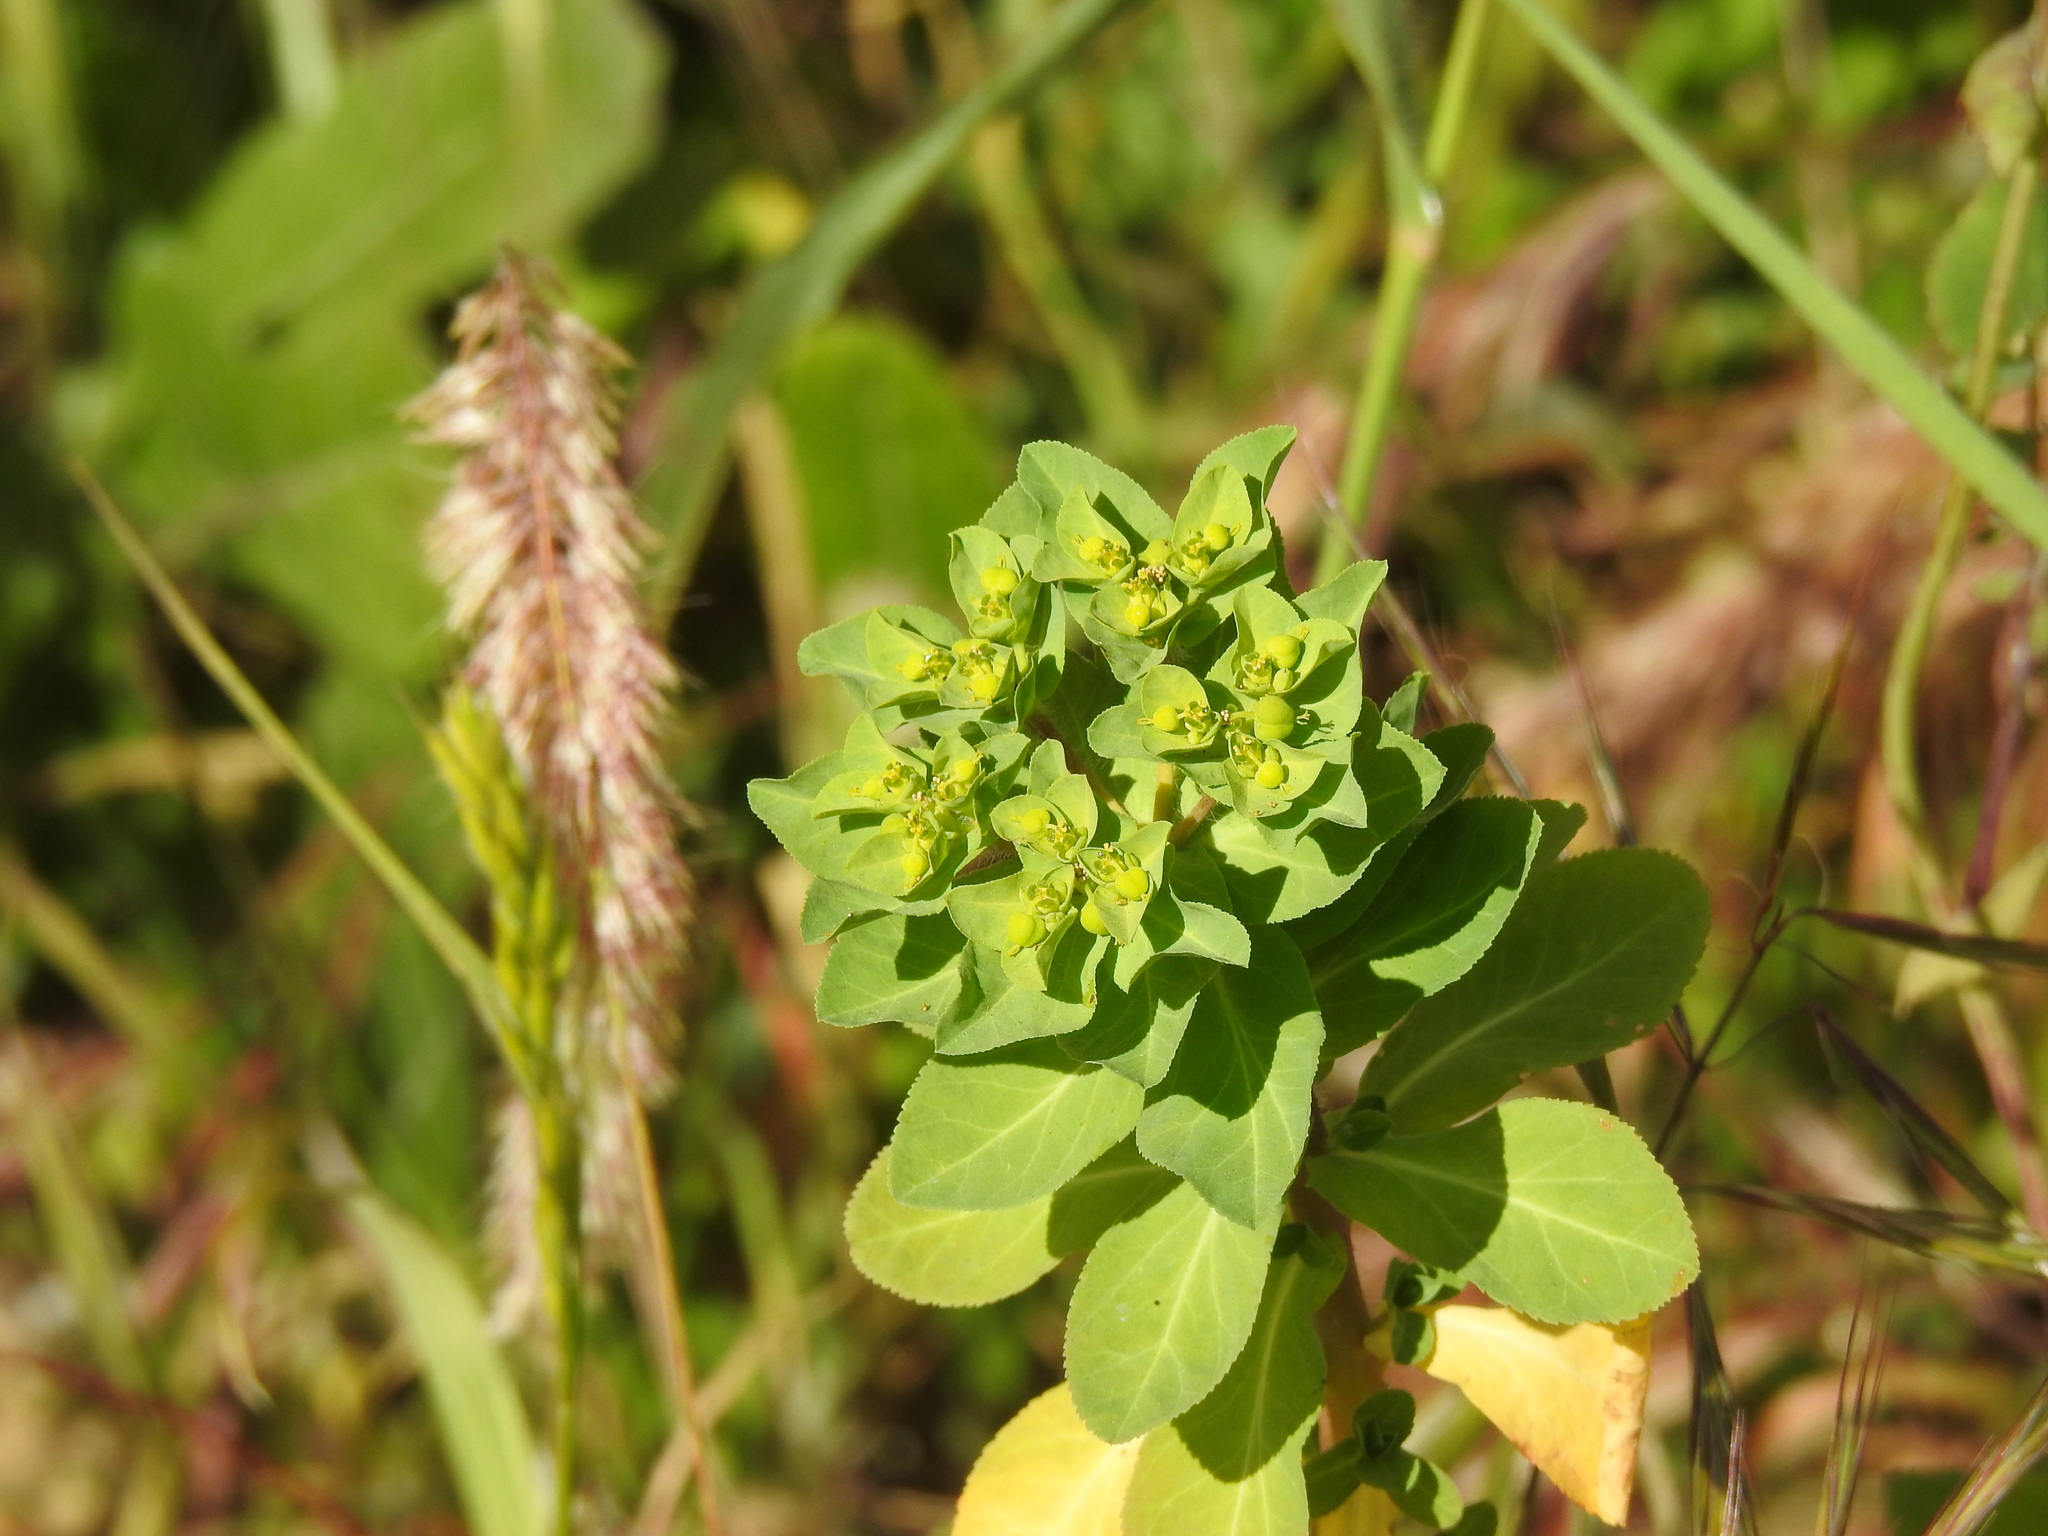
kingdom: Plantae
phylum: Tracheophyta
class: Magnoliopsida
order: Malpighiales
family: Euphorbiaceae
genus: Euphorbia
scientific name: Euphorbia helioscopia
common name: Sun spurge
